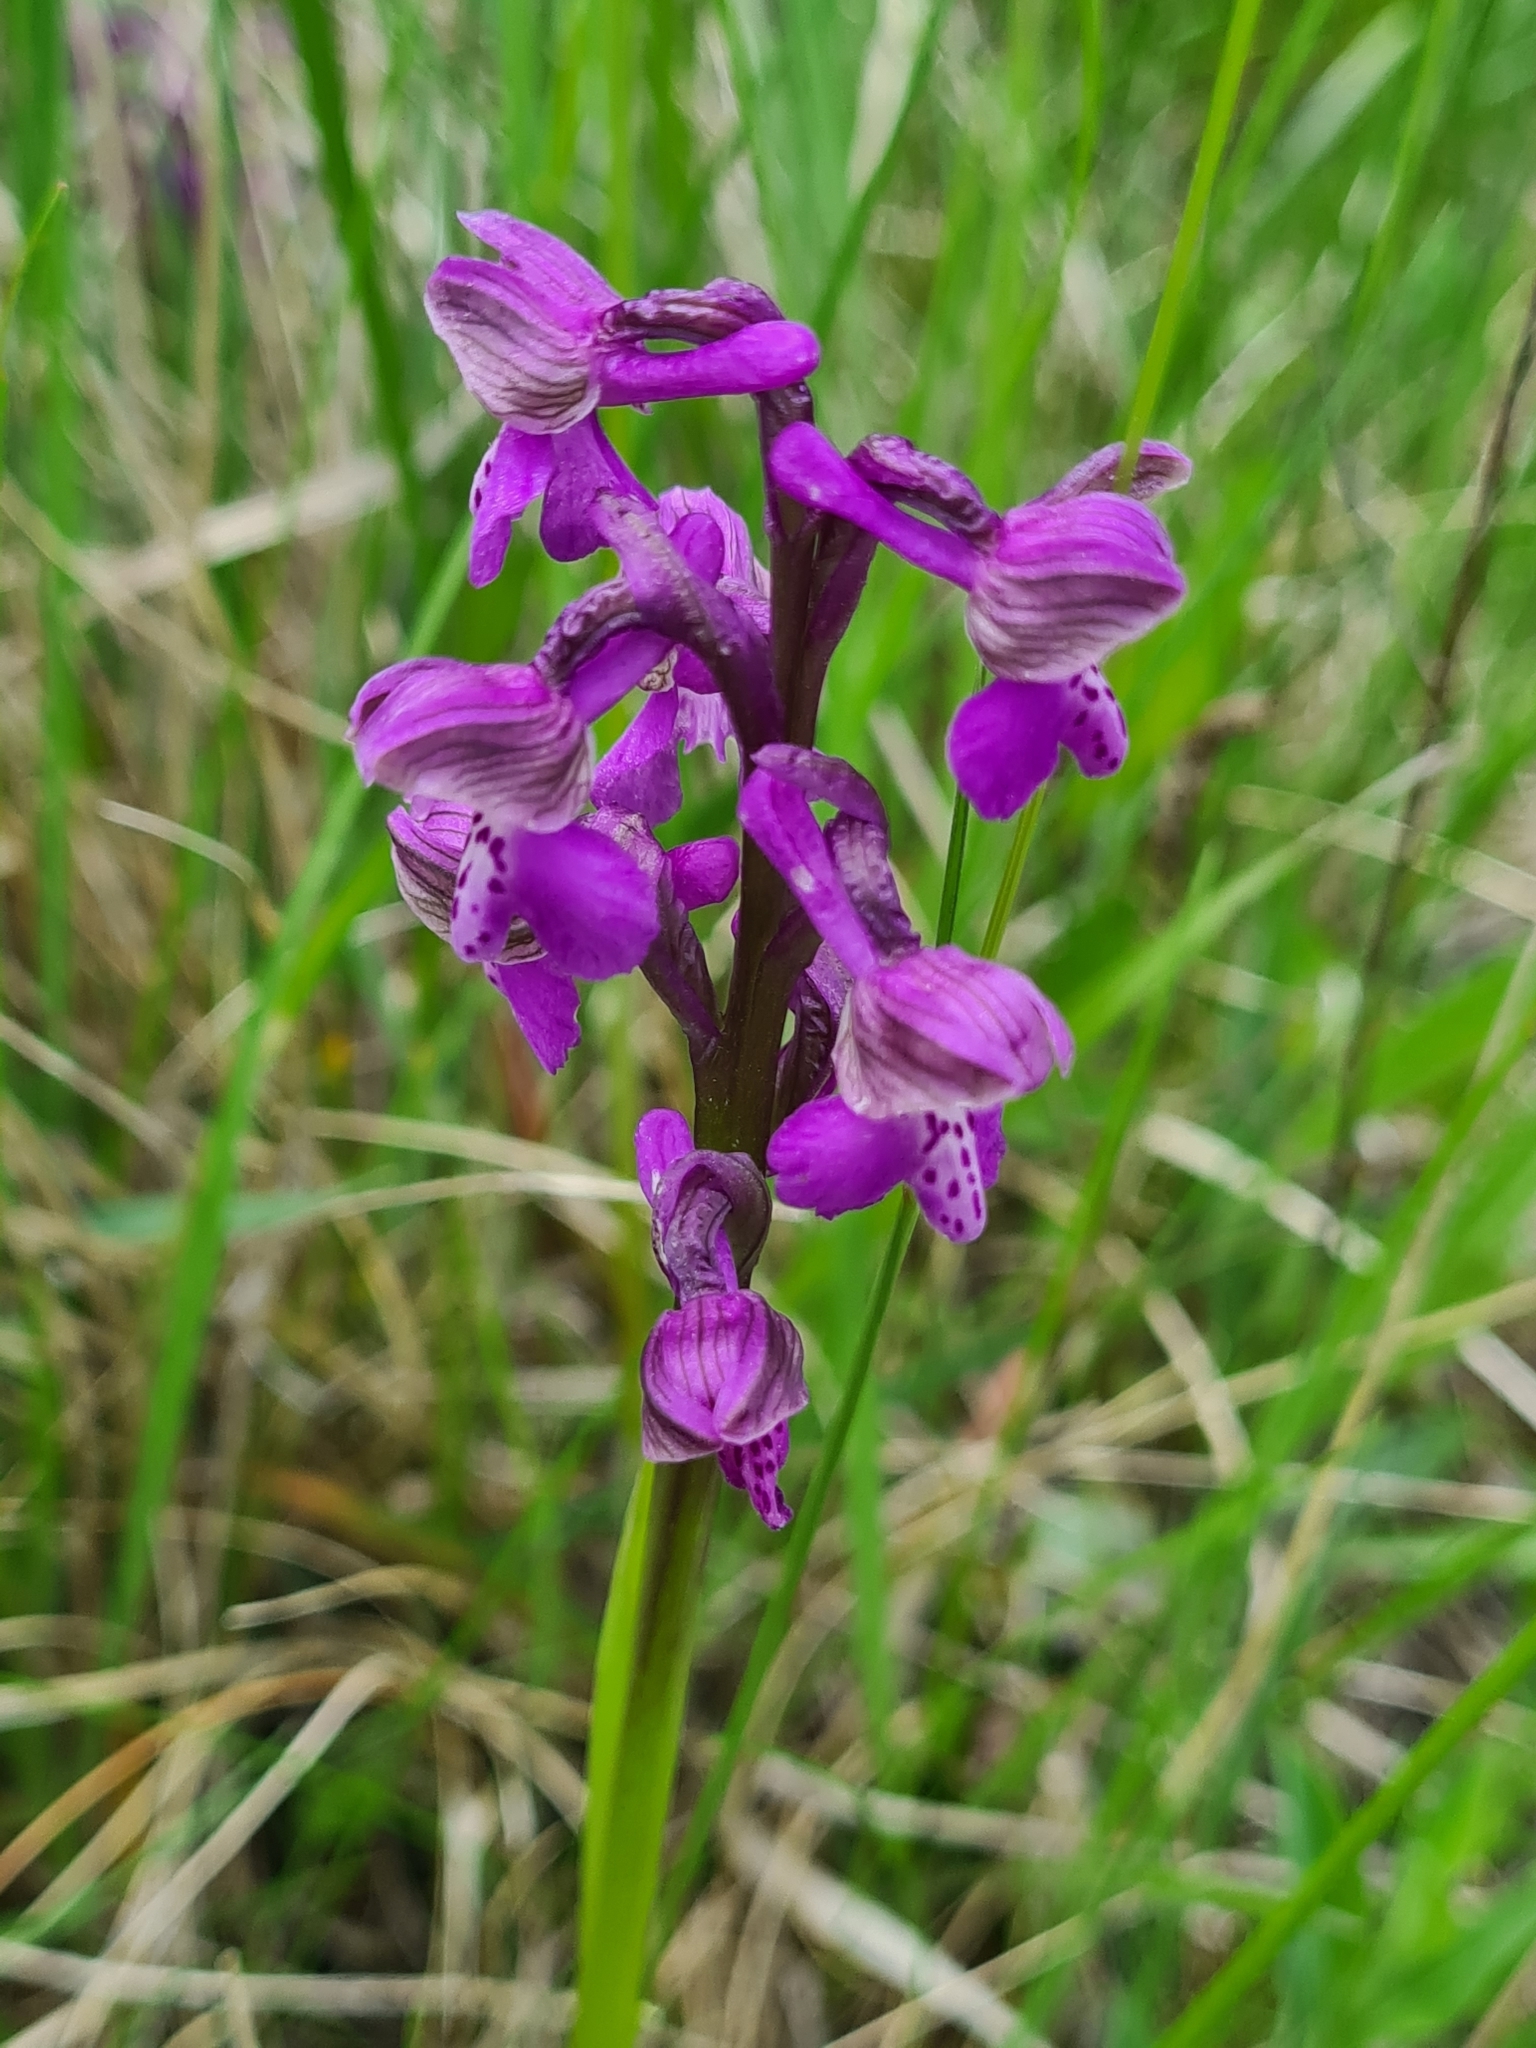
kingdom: Plantae
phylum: Tracheophyta
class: Liliopsida
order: Asparagales
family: Orchidaceae
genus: Anacamptis
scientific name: Anacamptis morio
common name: Green-winged orchid
